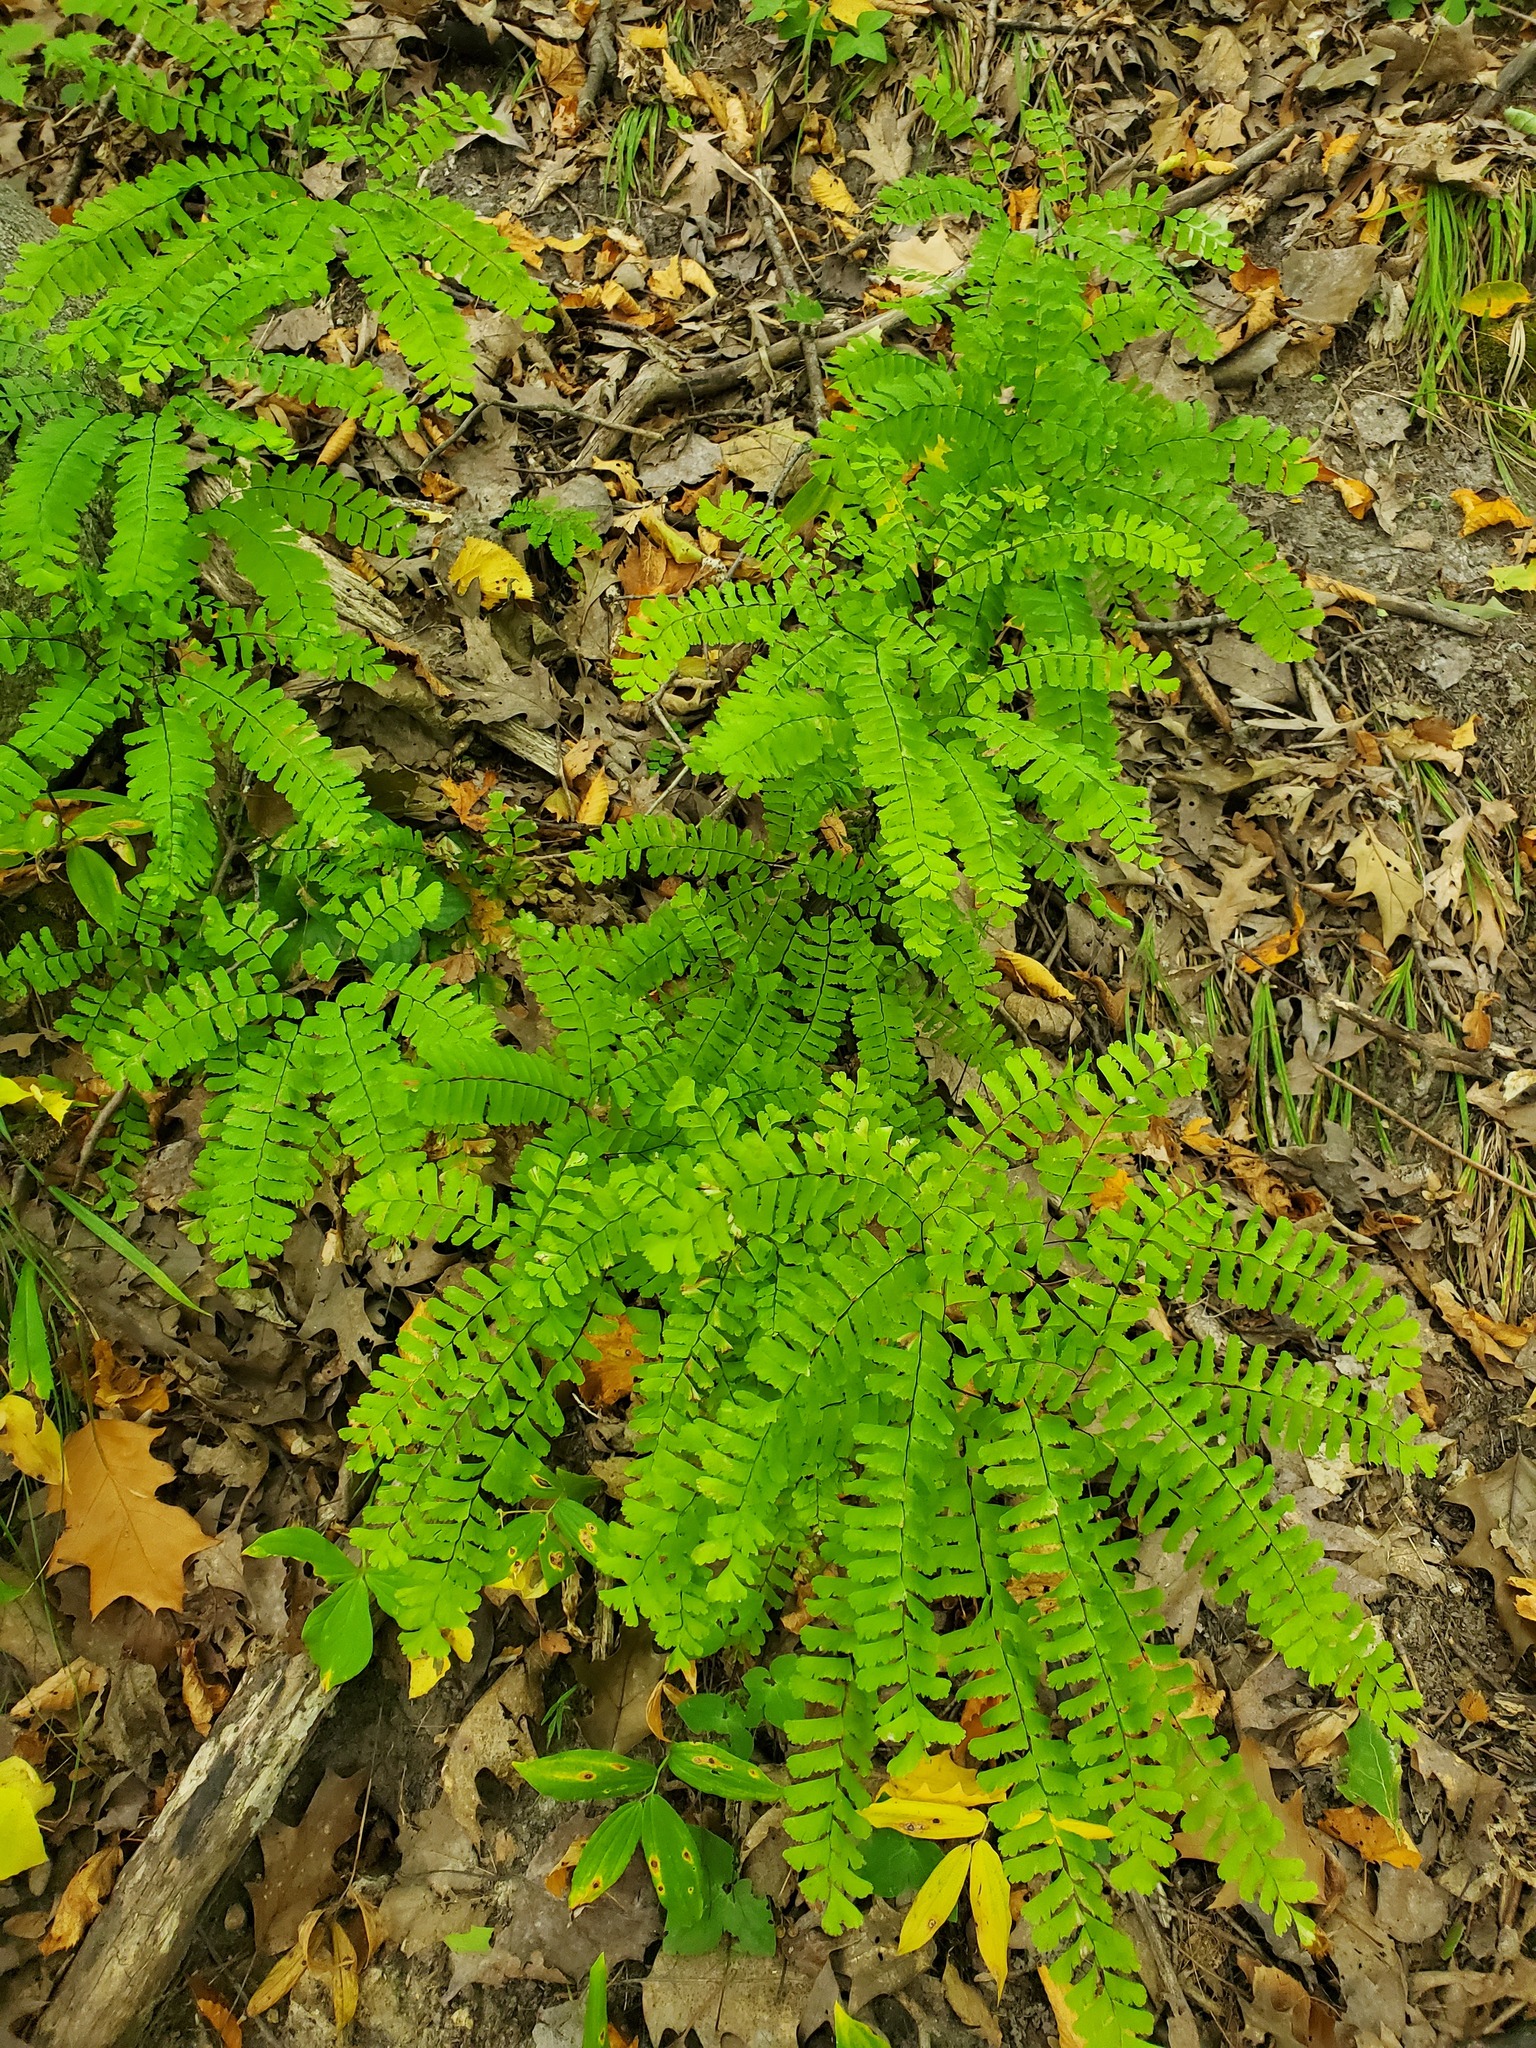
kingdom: Plantae
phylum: Tracheophyta
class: Polypodiopsida
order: Polypodiales
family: Pteridaceae
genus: Adiantum
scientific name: Adiantum pedatum
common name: Five-finger fern
